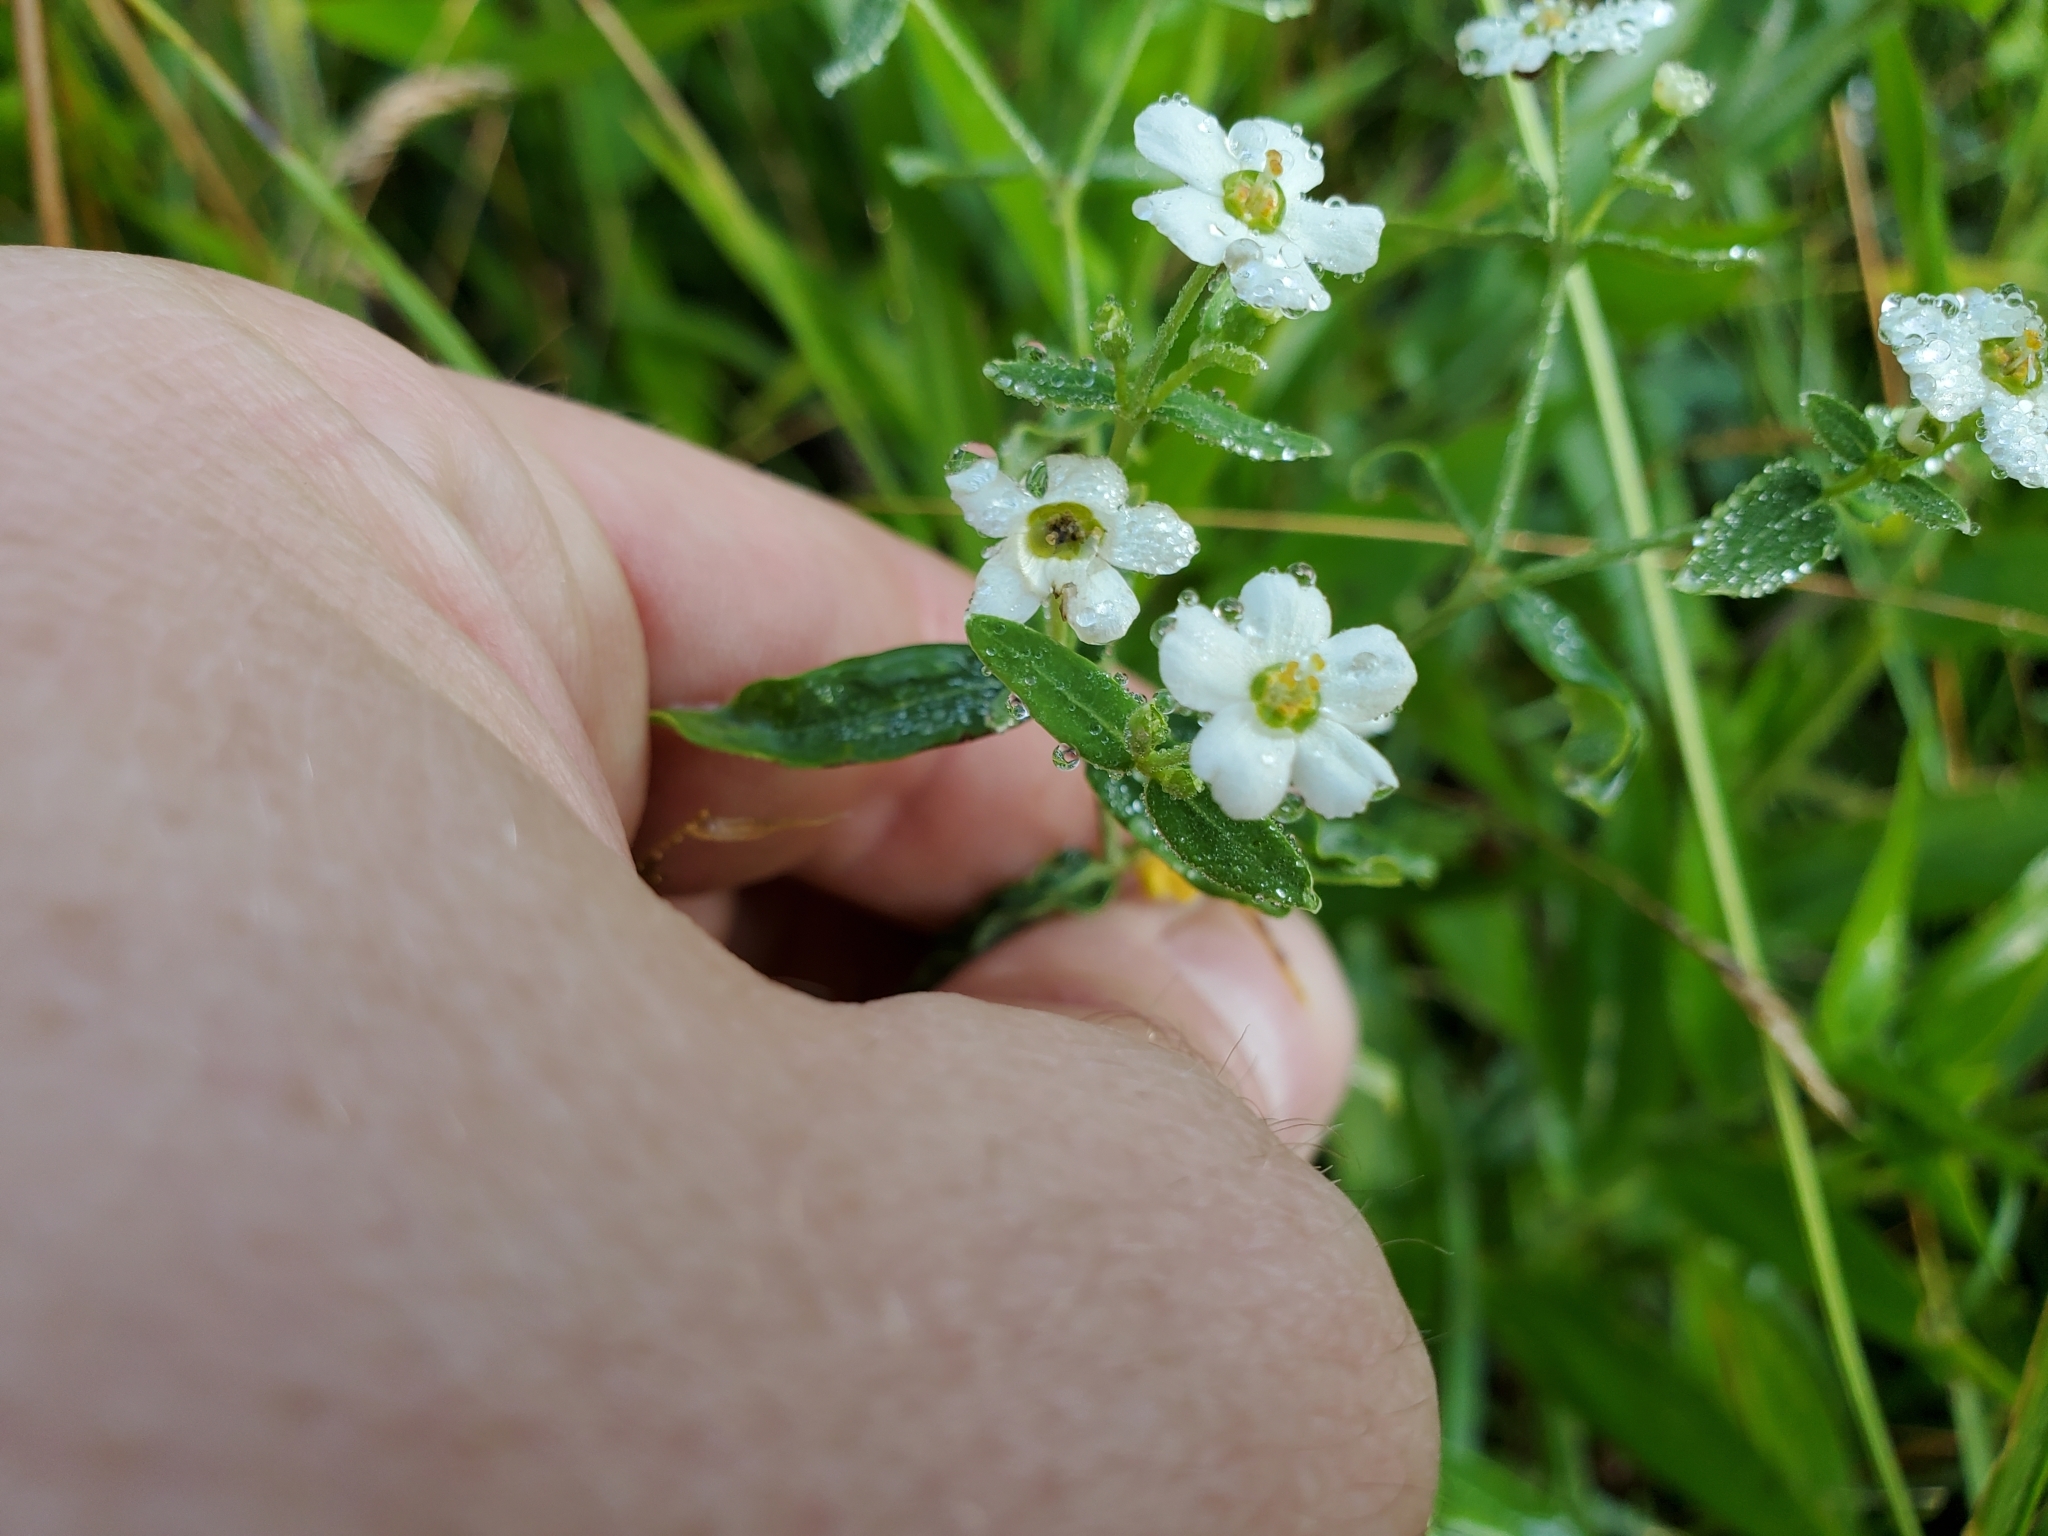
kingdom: Plantae
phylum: Tracheophyta
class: Magnoliopsida
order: Malpighiales
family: Euphorbiaceae
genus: Euphorbia
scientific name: Euphorbia corollata
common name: Flowering spurge
